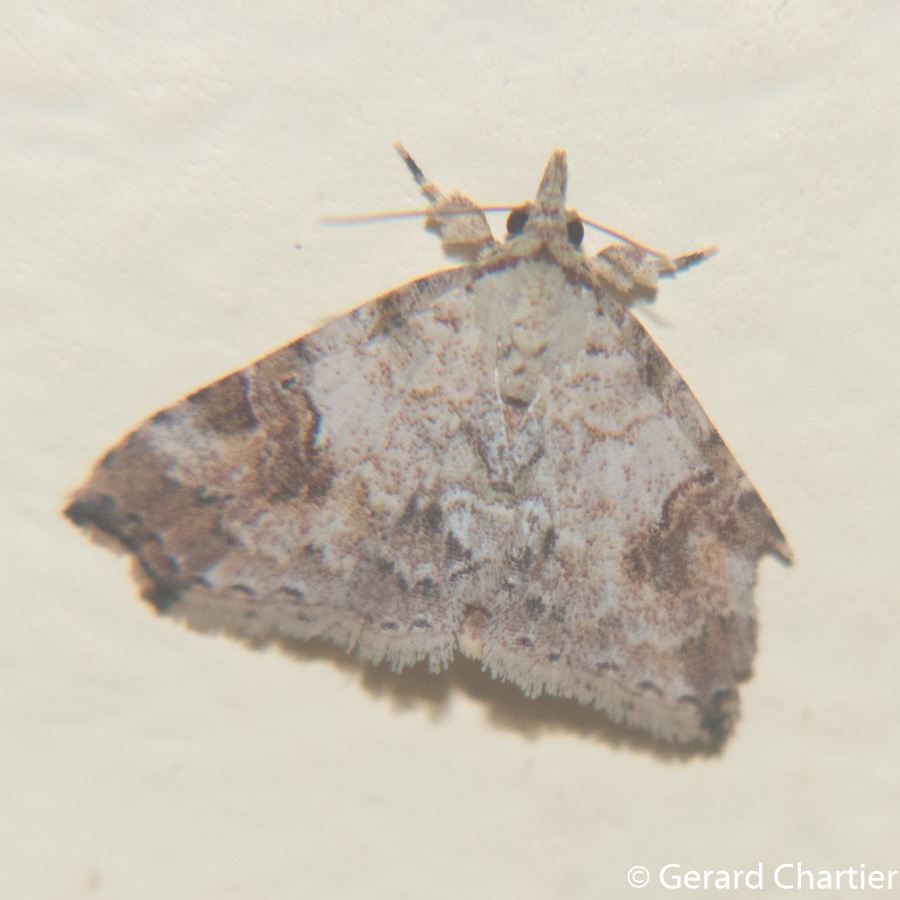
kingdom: Animalia
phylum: Arthropoda
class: Insecta
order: Lepidoptera
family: Erebidae
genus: Tipasa
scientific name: Tipasa renalis
